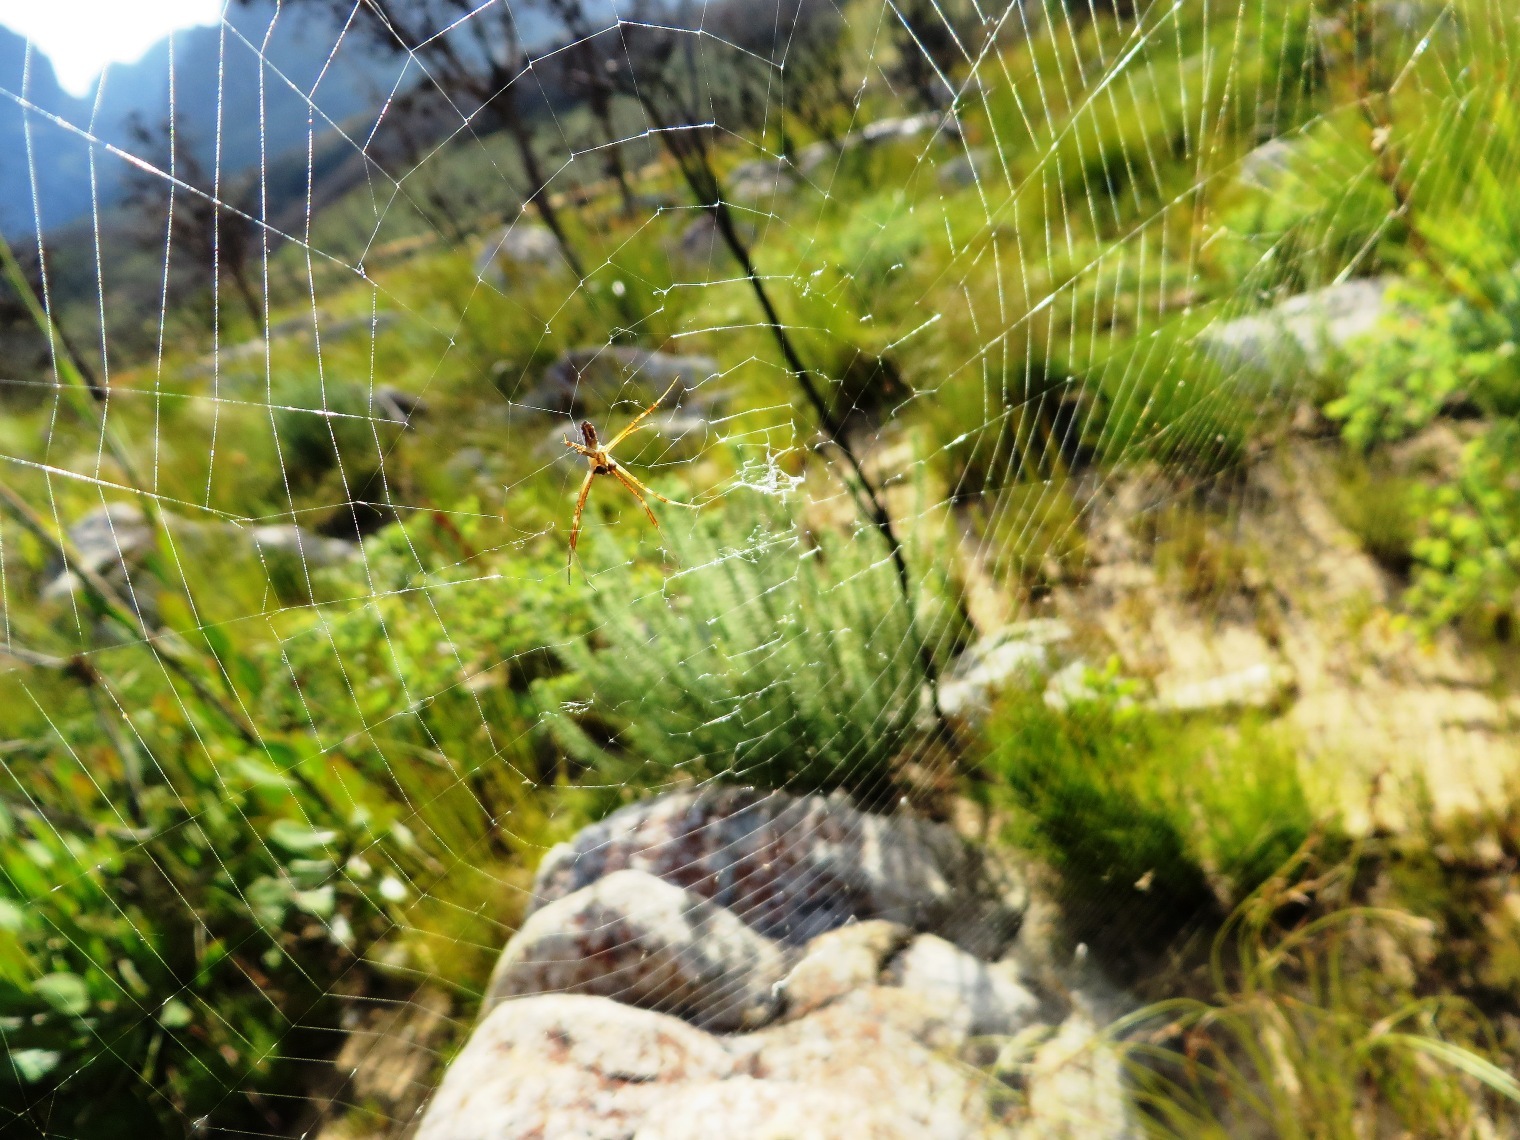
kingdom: Animalia
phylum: Arthropoda
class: Arachnida
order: Araneae
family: Araneidae
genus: Argiope
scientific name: Argiope australis
